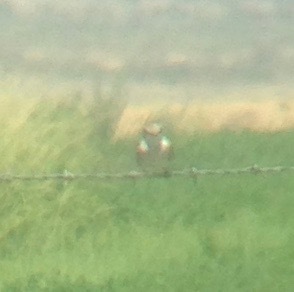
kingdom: Animalia
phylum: Chordata
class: Aves
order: Passeriformes
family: Tyrannidae
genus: Pyrocephalus
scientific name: Pyrocephalus rubinus
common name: Vermilion flycatcher
